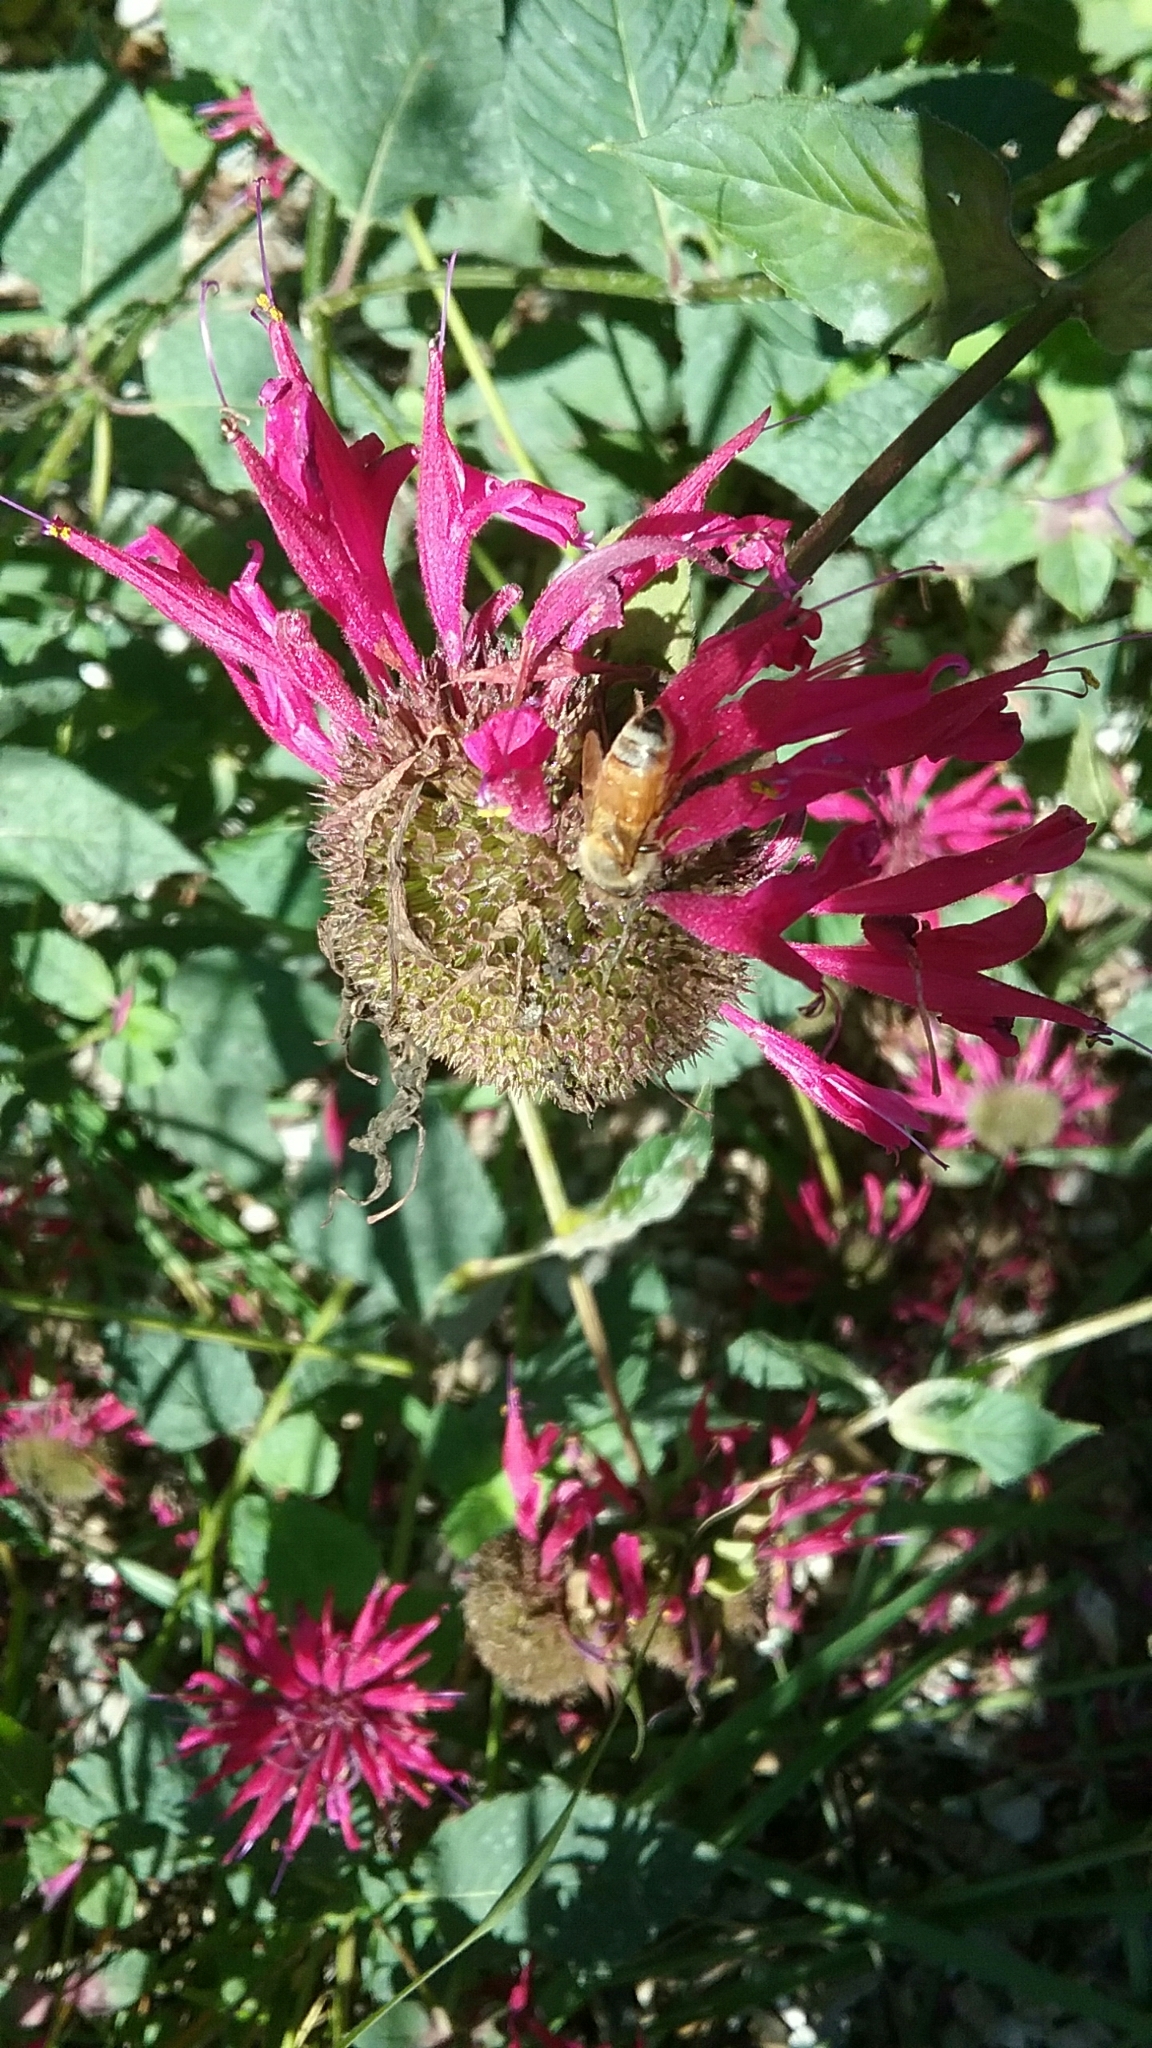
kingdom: Animalia
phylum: Arthropoda
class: Insecta
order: Hymenoptera
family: Apidae
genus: Apis
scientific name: Apis mellifera
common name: Honey bee
